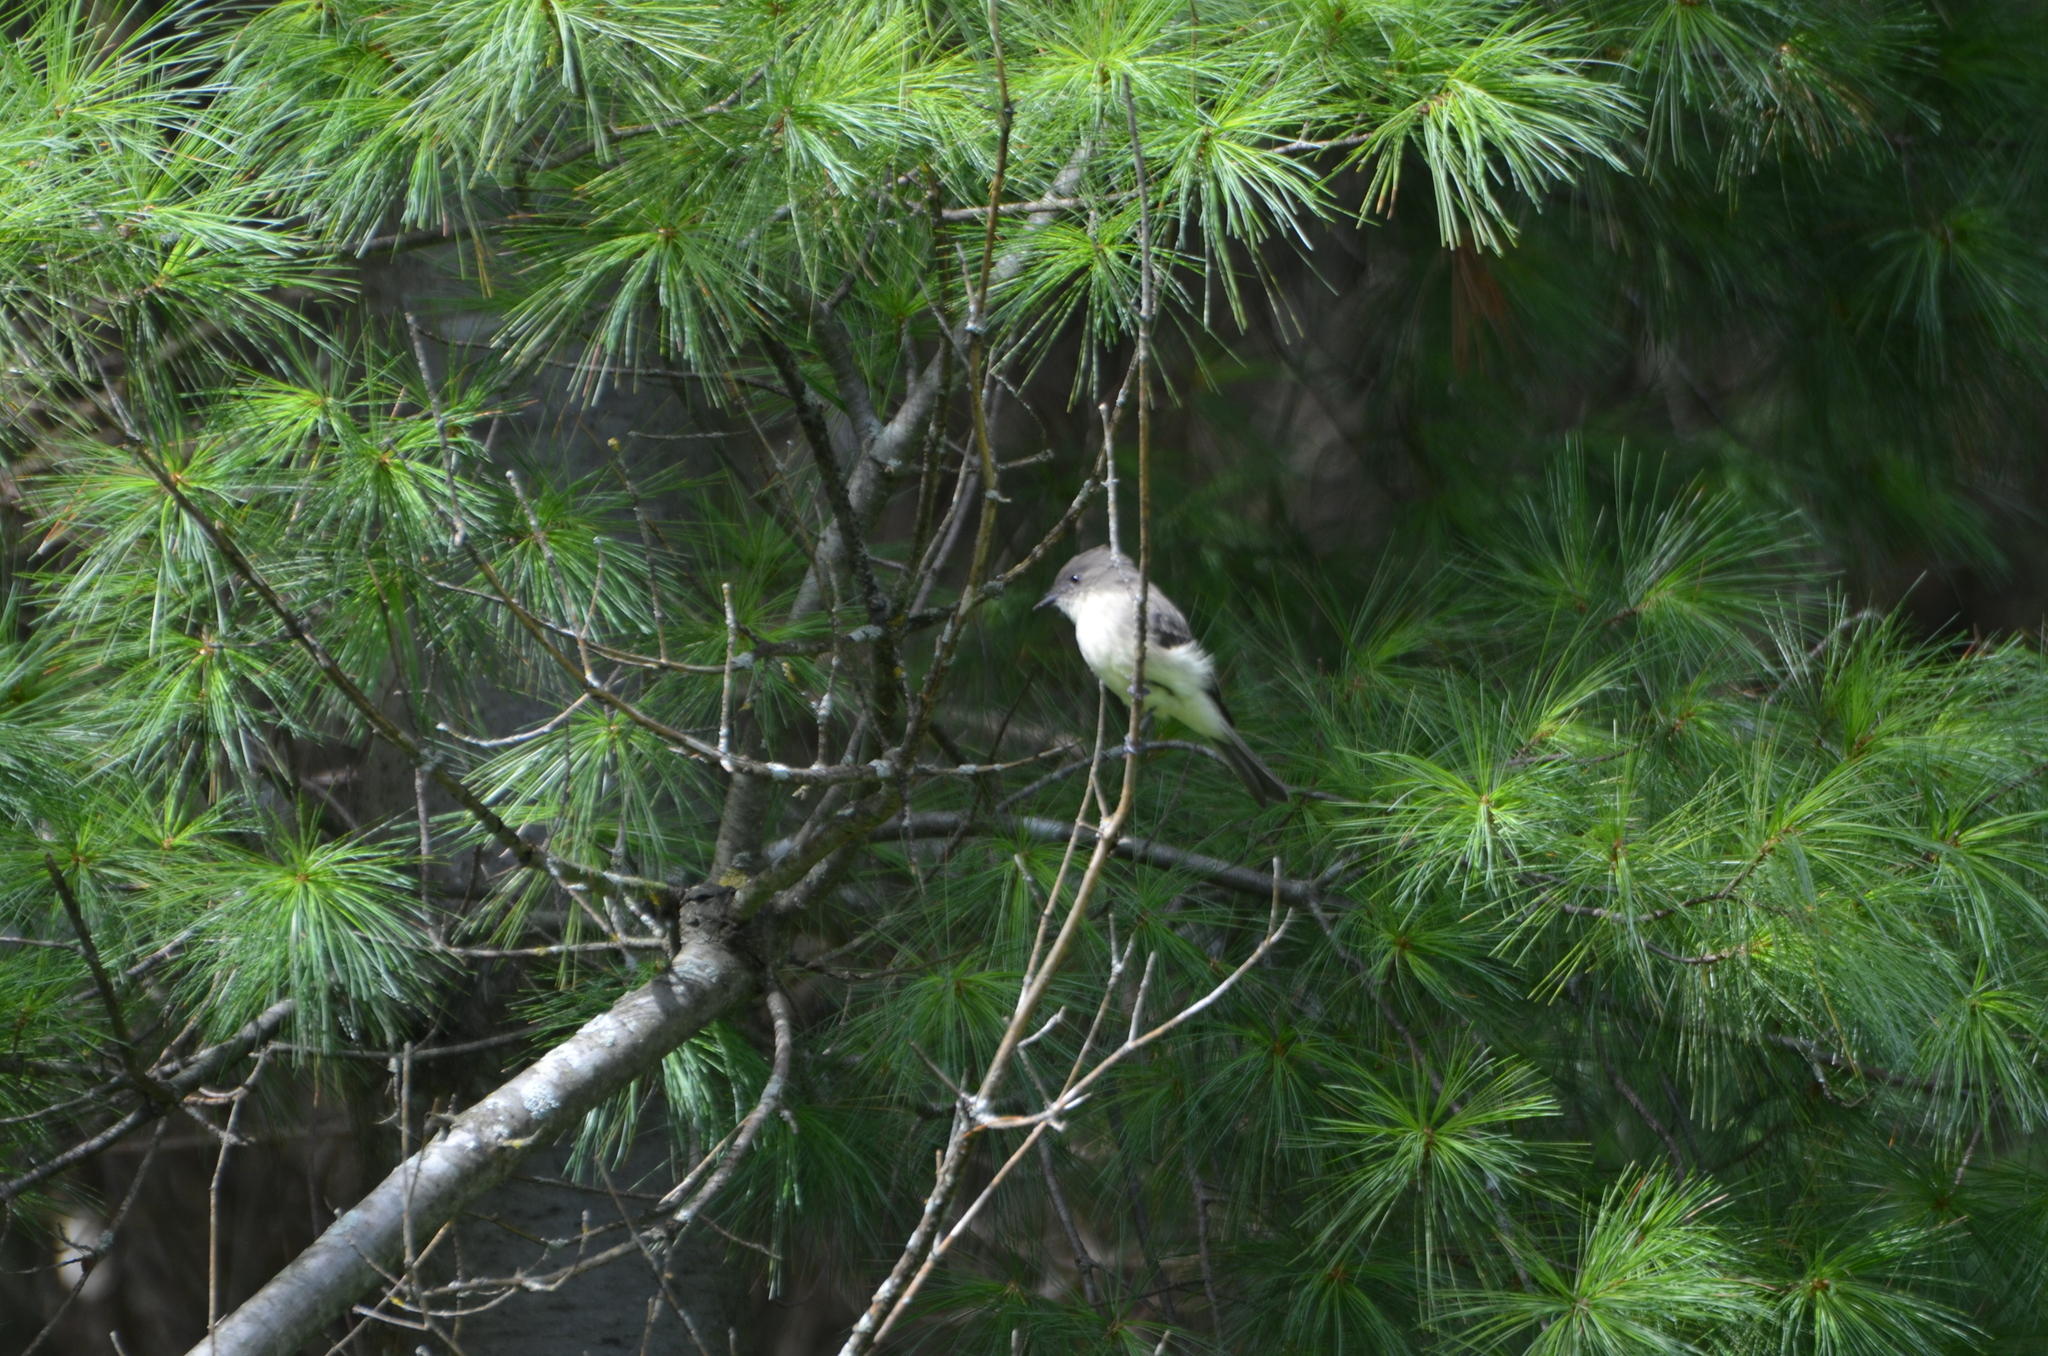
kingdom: Animalia
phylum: Chordata
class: Aves
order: Passeriformes
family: Tyrannidae
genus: Sayornis
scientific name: Sayornis phoebe
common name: Eastern phoebe
